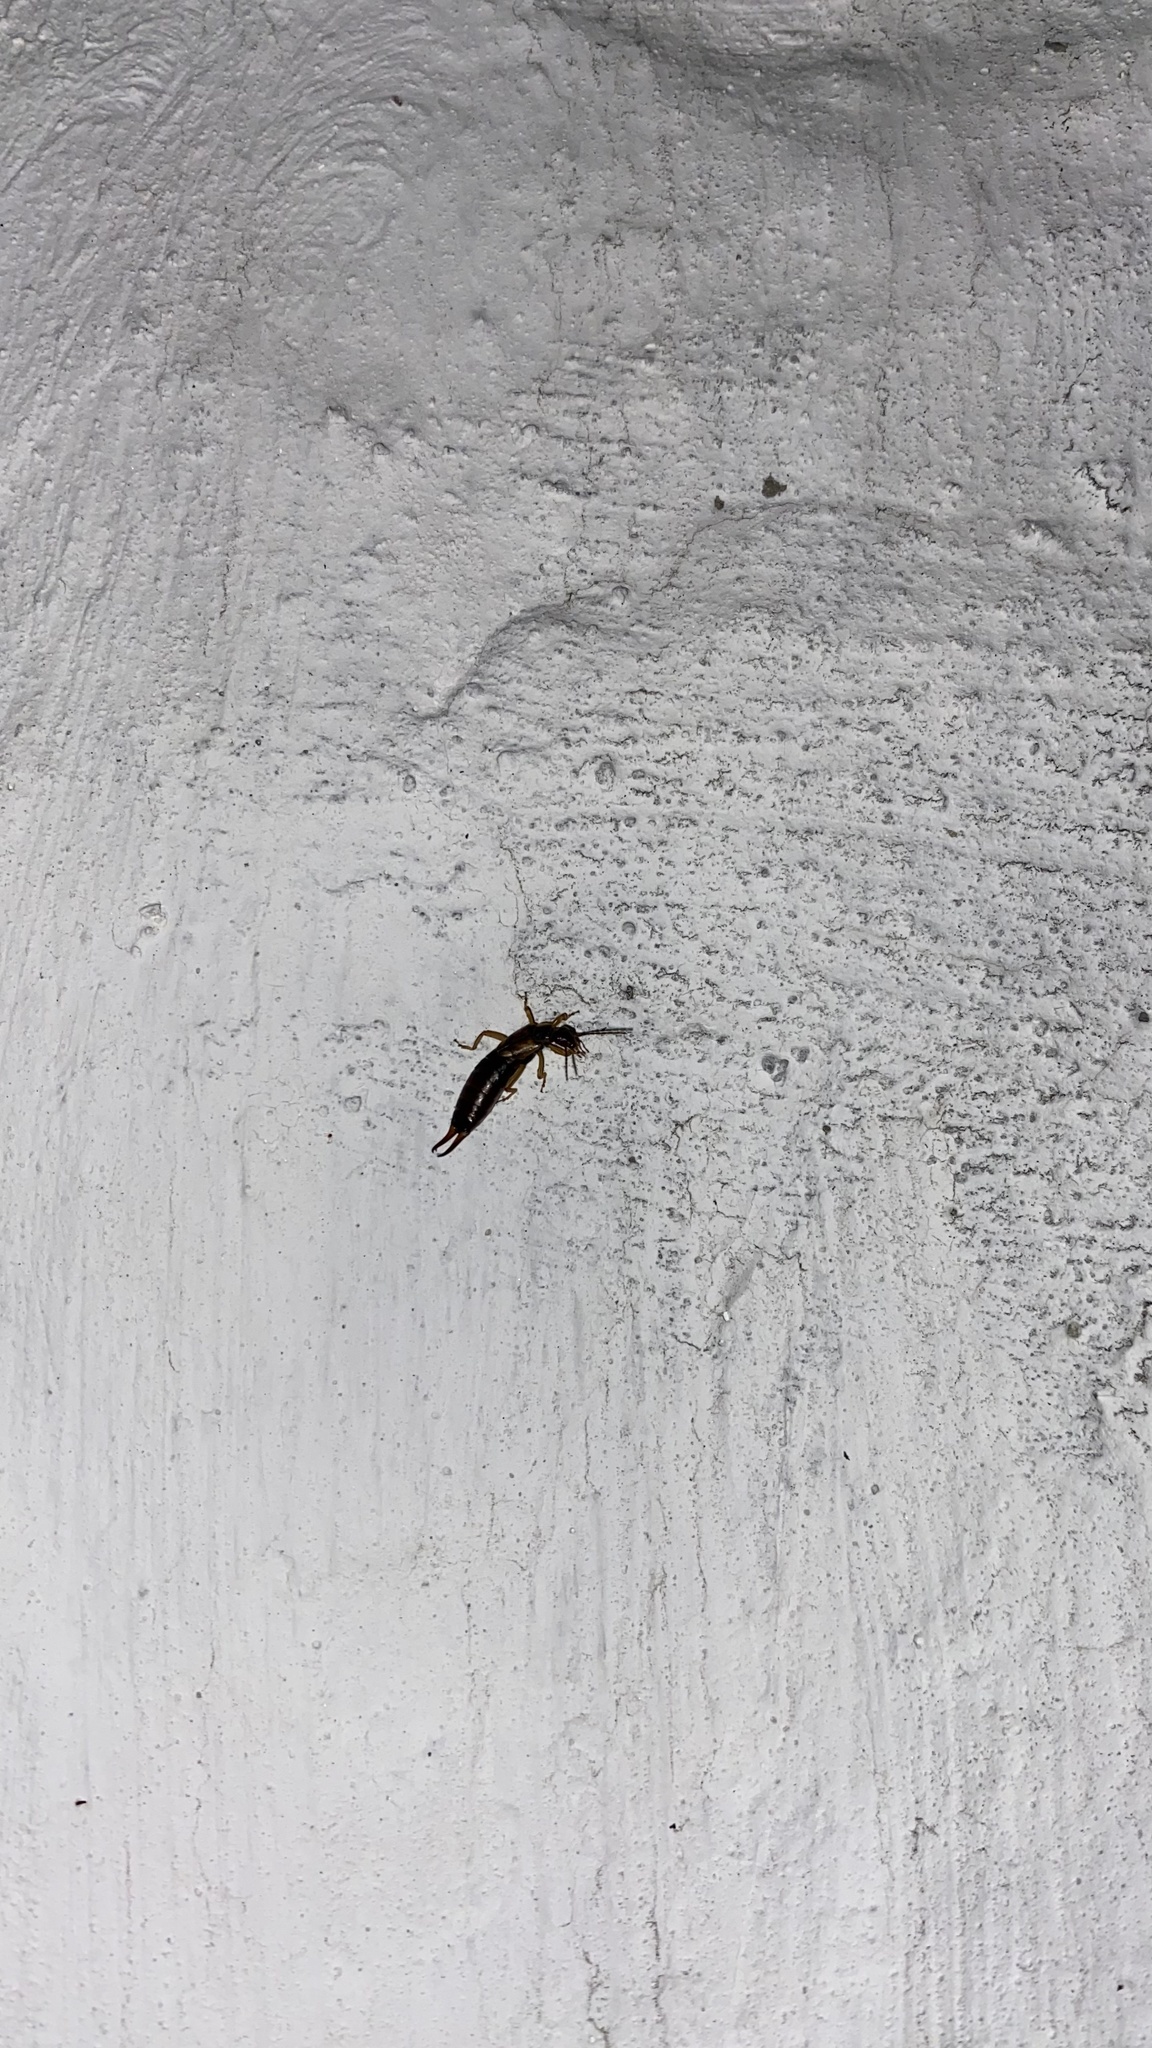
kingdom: Animalia
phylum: Arthropoda
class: Insecta
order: Dermaptera
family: Forficulidae
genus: Forficula
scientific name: Forficula
